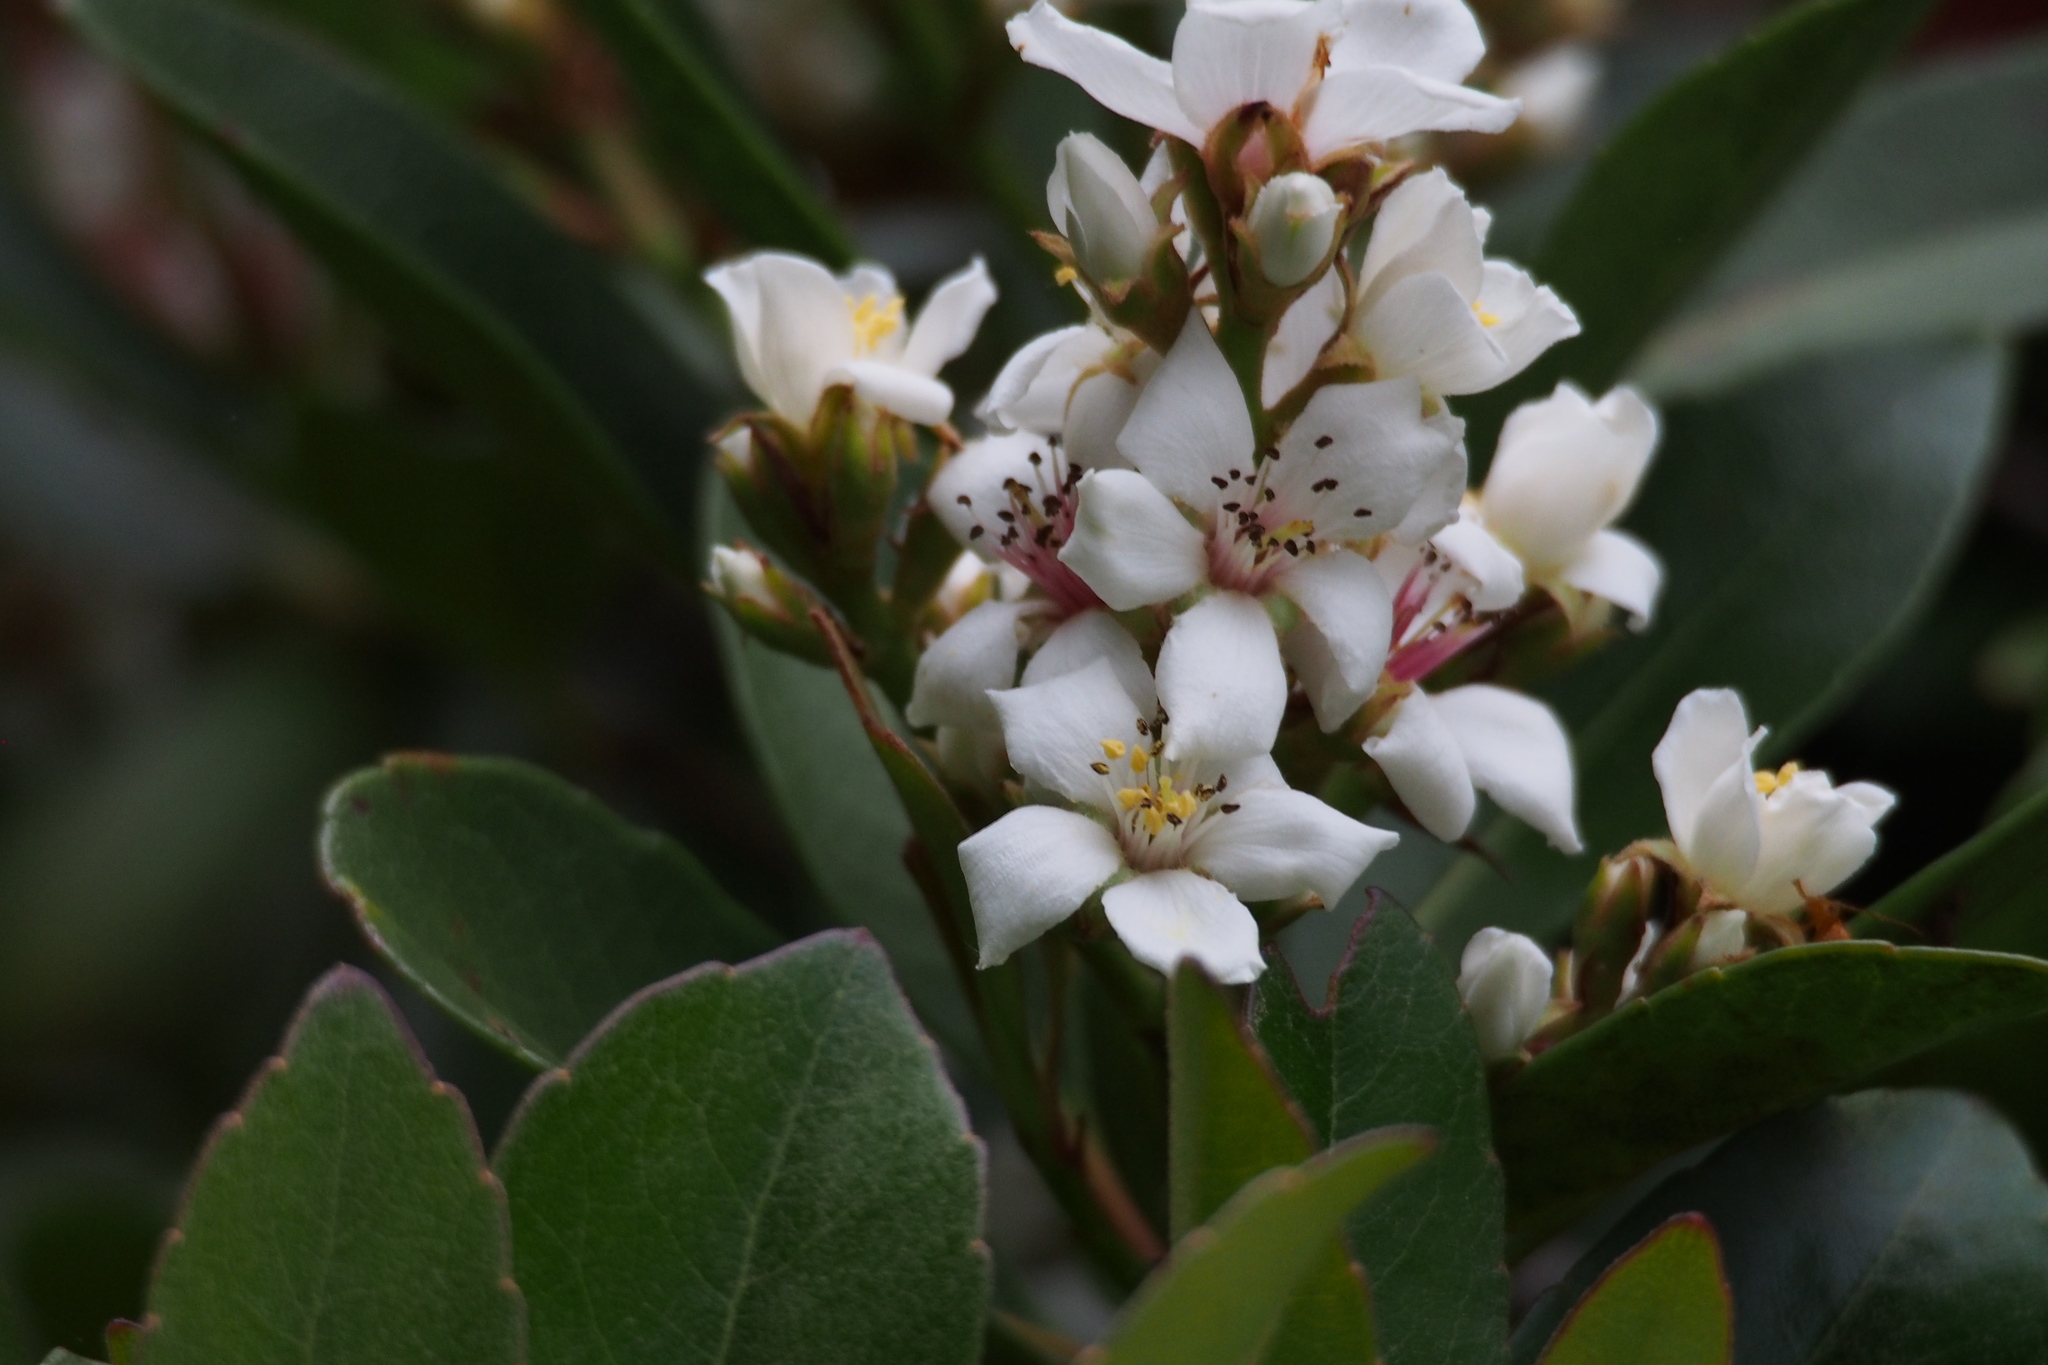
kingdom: Plantae
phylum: Tracheophyta
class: Magnoliopsida
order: Rosales
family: Rosaceae
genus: Rhaphiolepis
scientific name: Rhaphiolepis indica
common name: India-hawthorn
